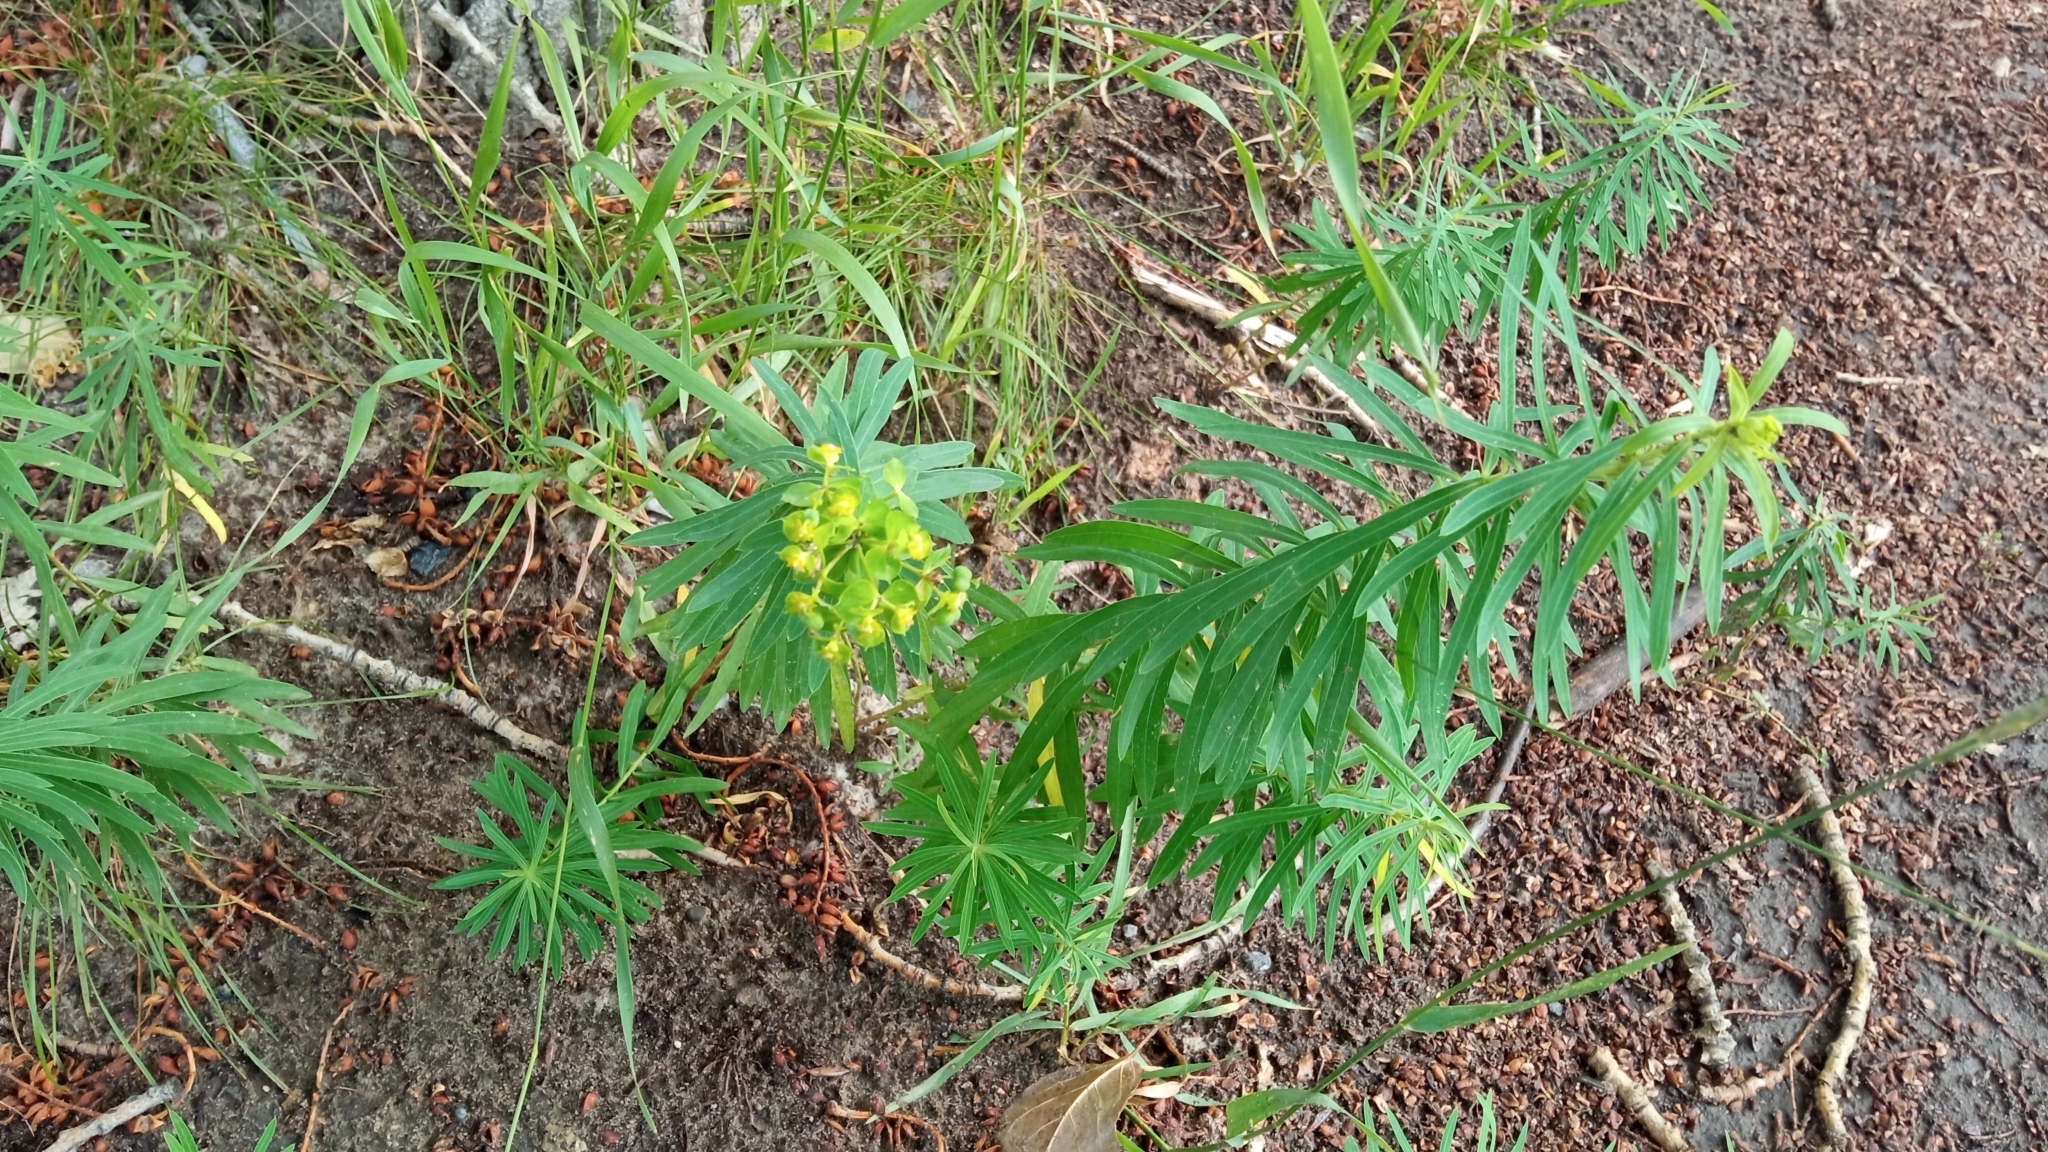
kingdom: Plantae
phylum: Tracheophyta
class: Magnoliopsida
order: Malpighiales
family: Euphorbiaceae
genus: Euphorbia
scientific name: Euphorbia virgata
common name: Leafy spurge
